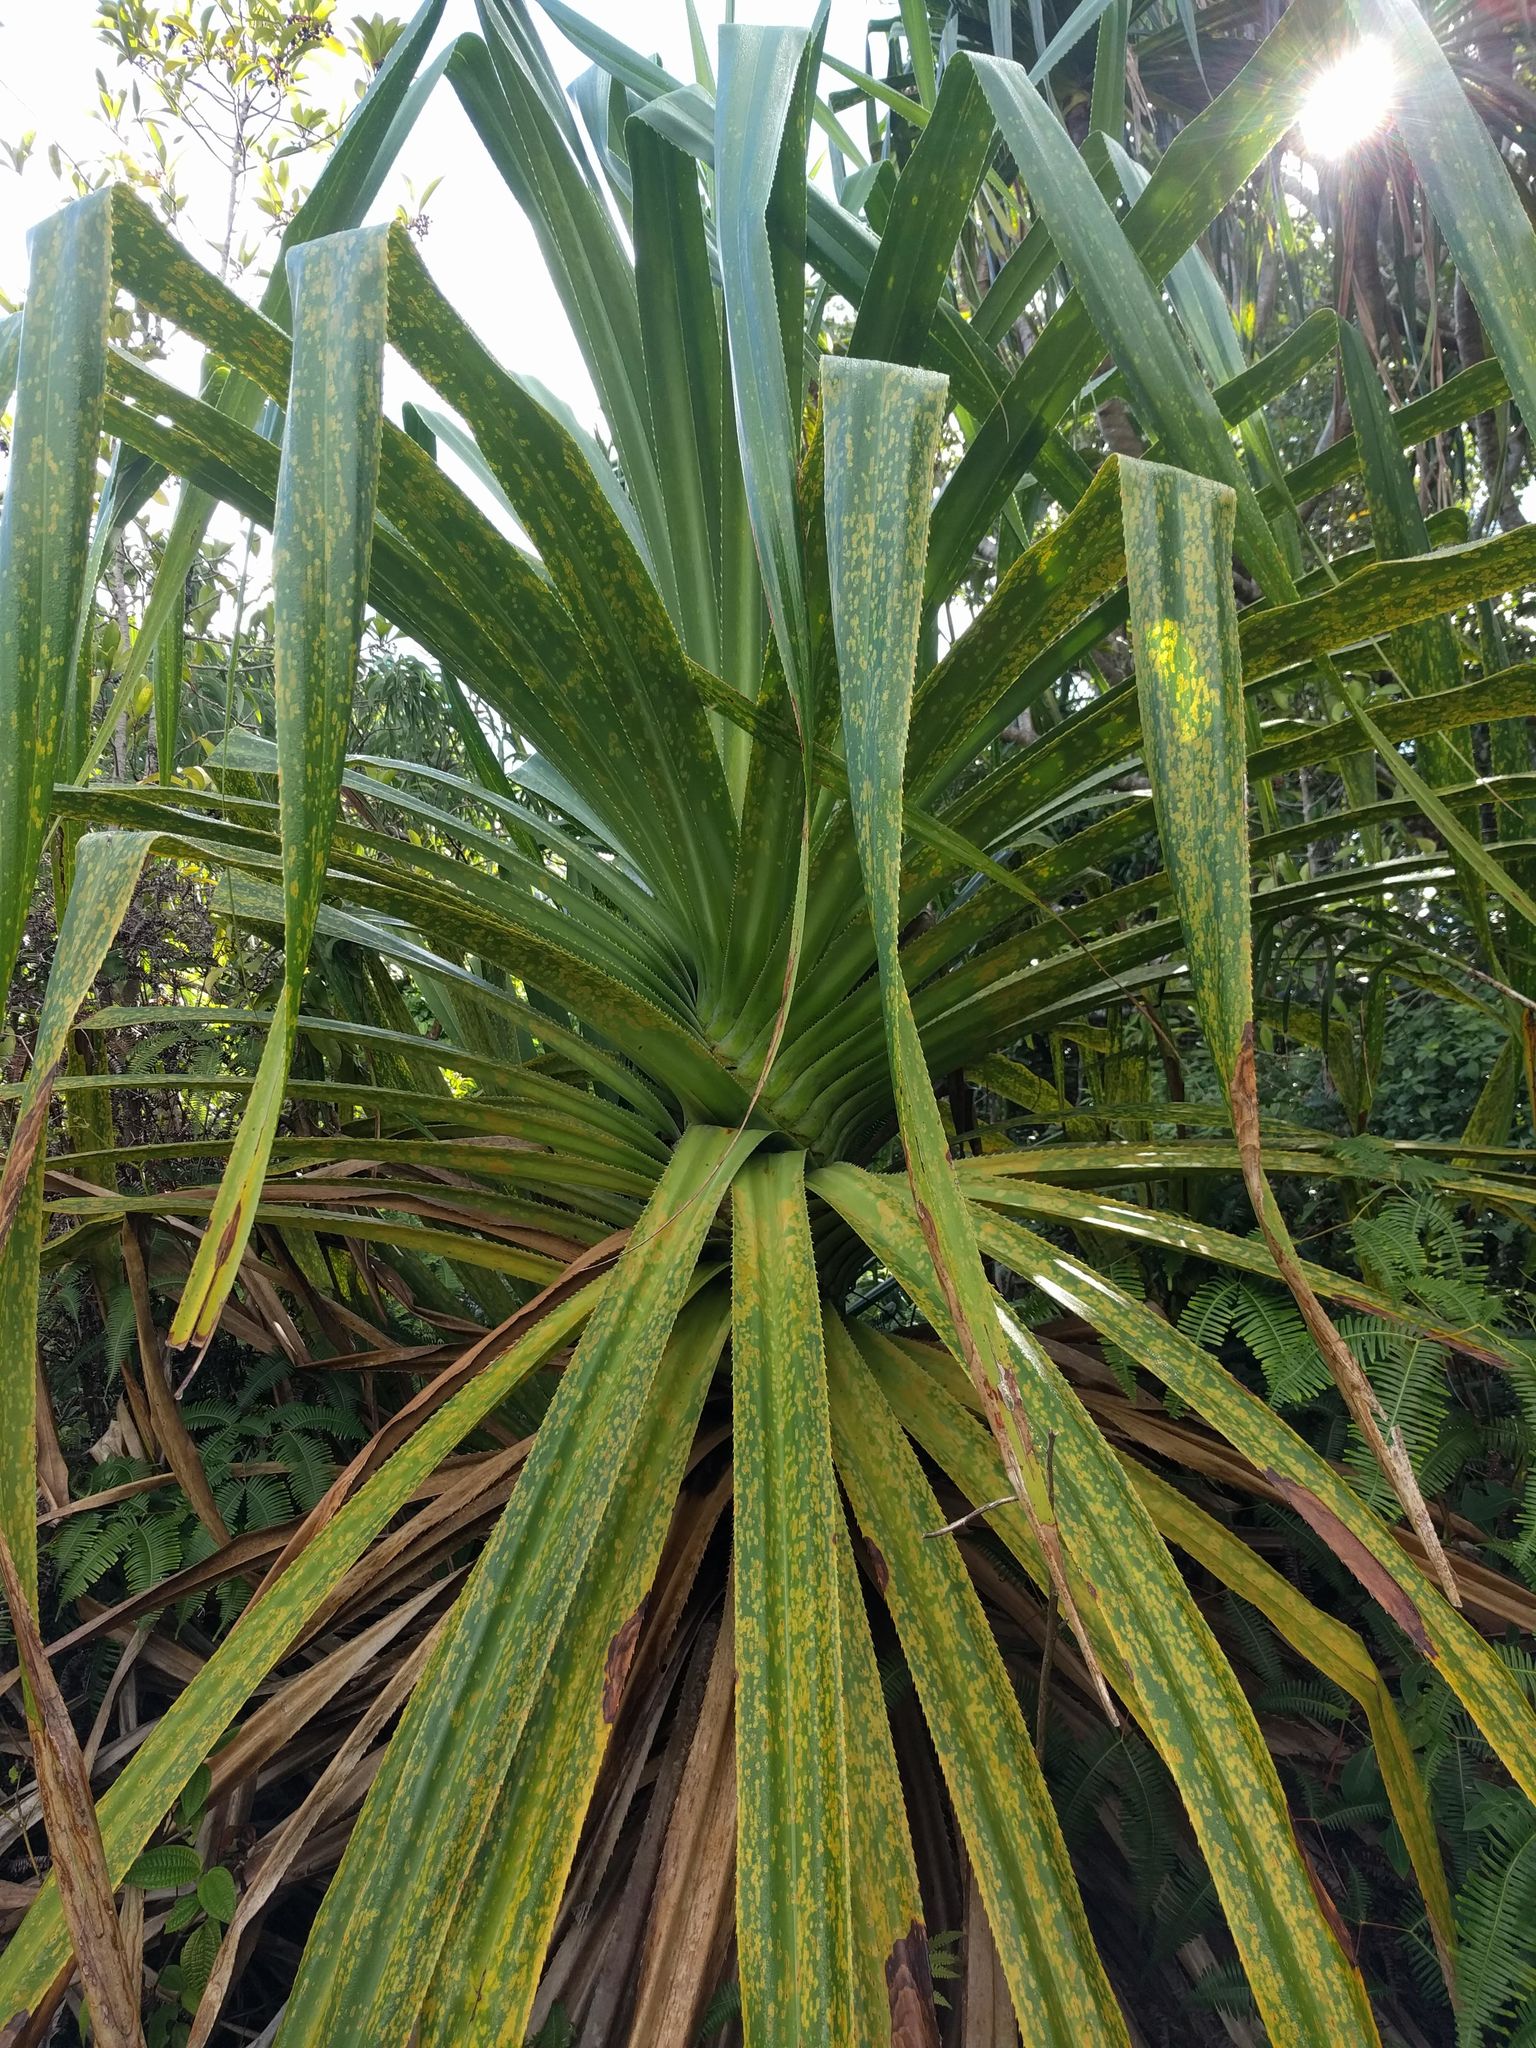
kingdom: Plantae
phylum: Tracheophyta
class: Liliopsida
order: Pandanales
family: Pandanaceae
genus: Pandanus
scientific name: Pandanus tectorius
